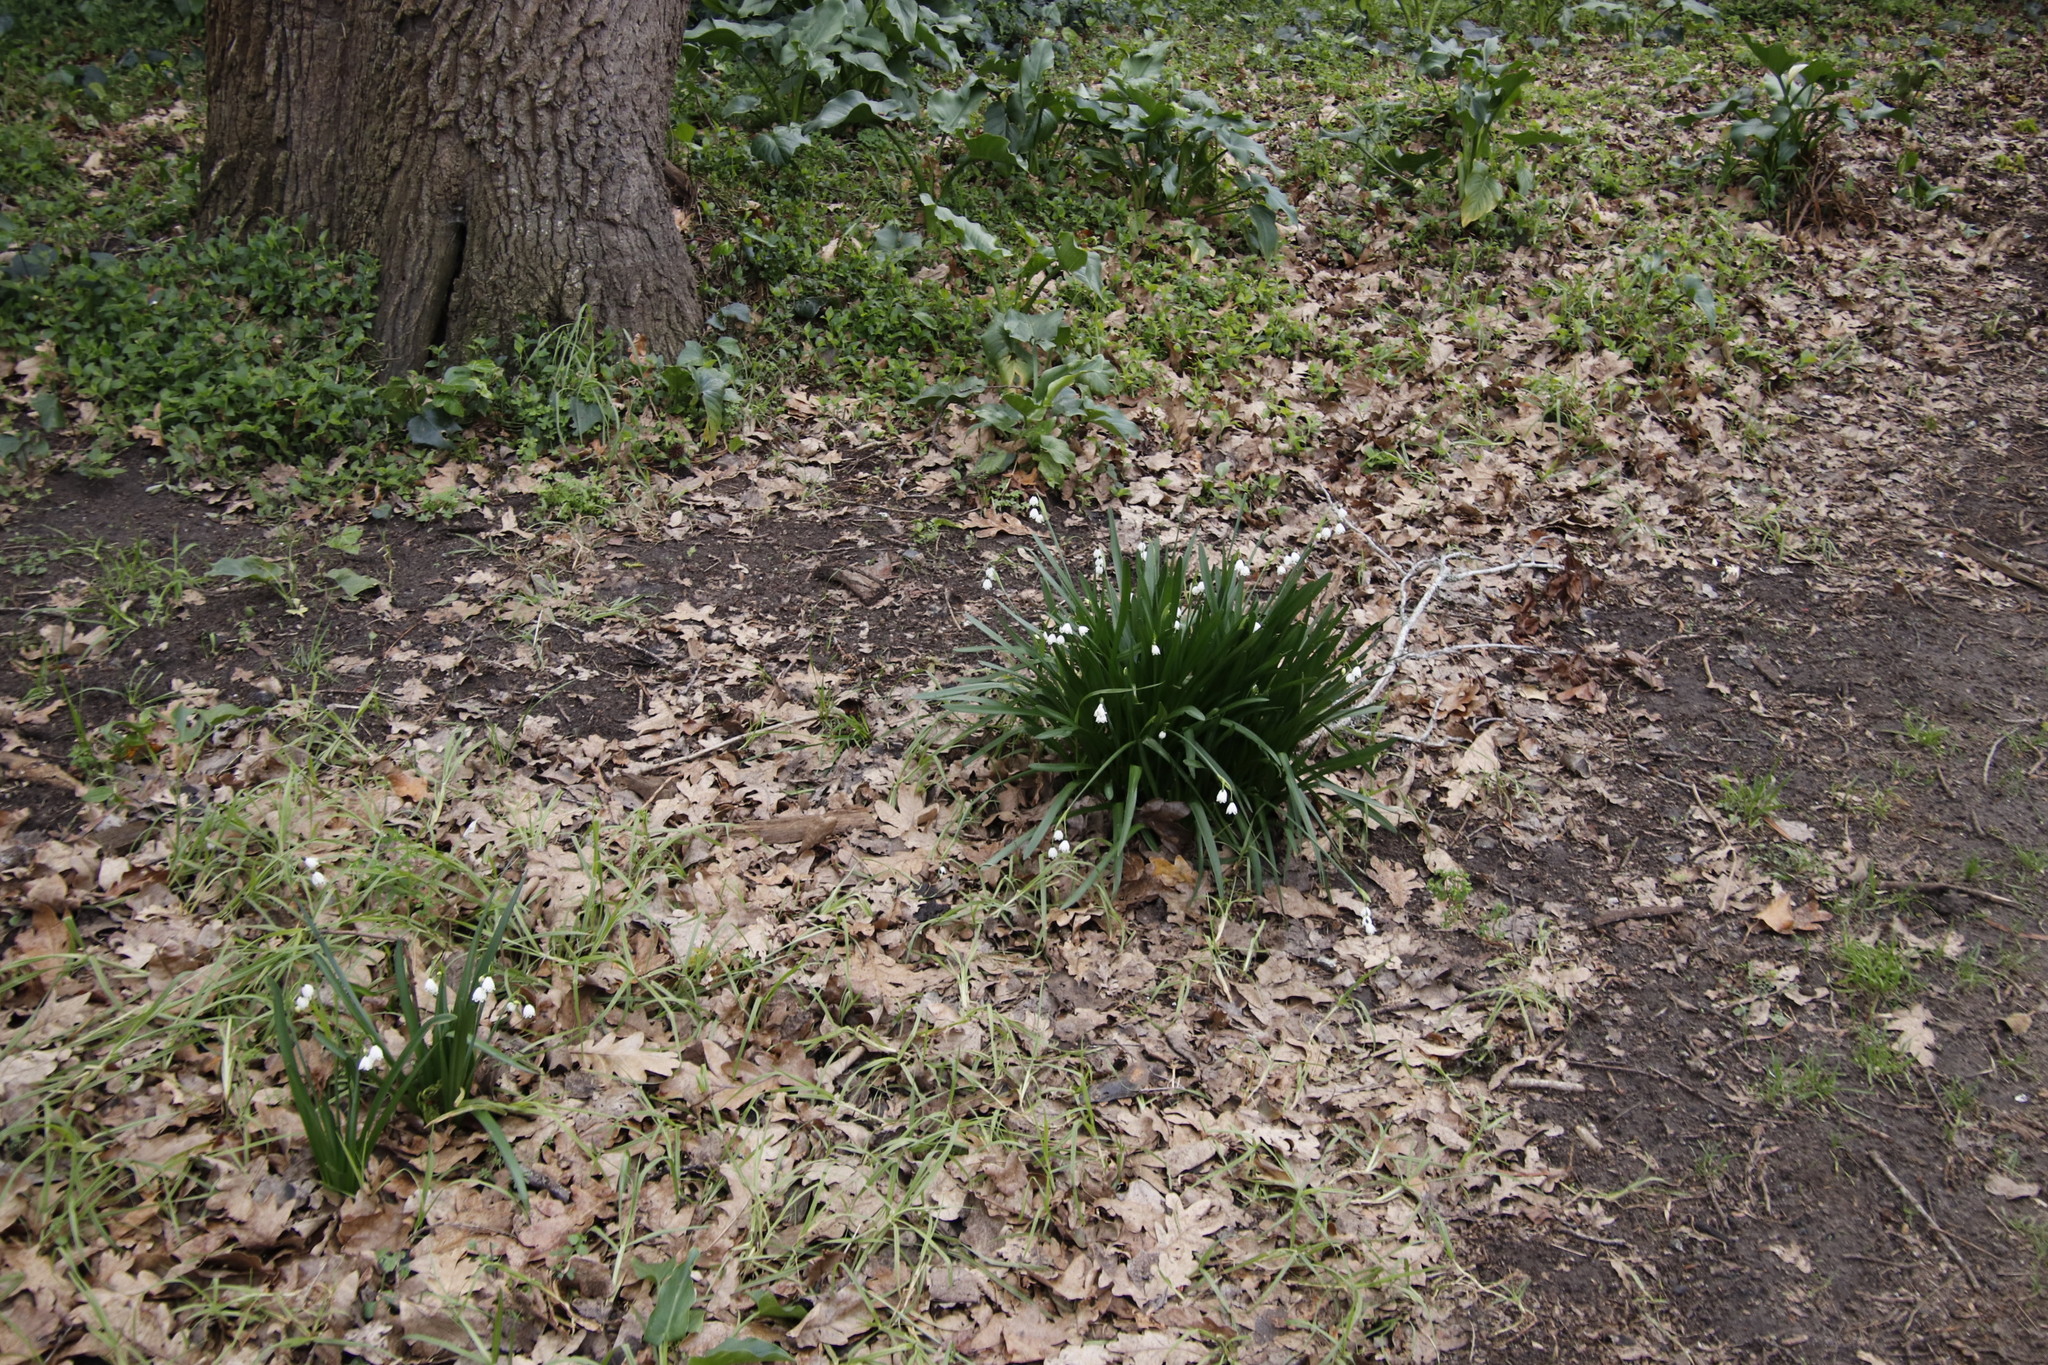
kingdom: Plantae
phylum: Tracheophyta
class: Liliopsida
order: Asparagales
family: Amaryllidaceae
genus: Leucojum
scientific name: Leucojum aestivum
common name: Summer snowflake
